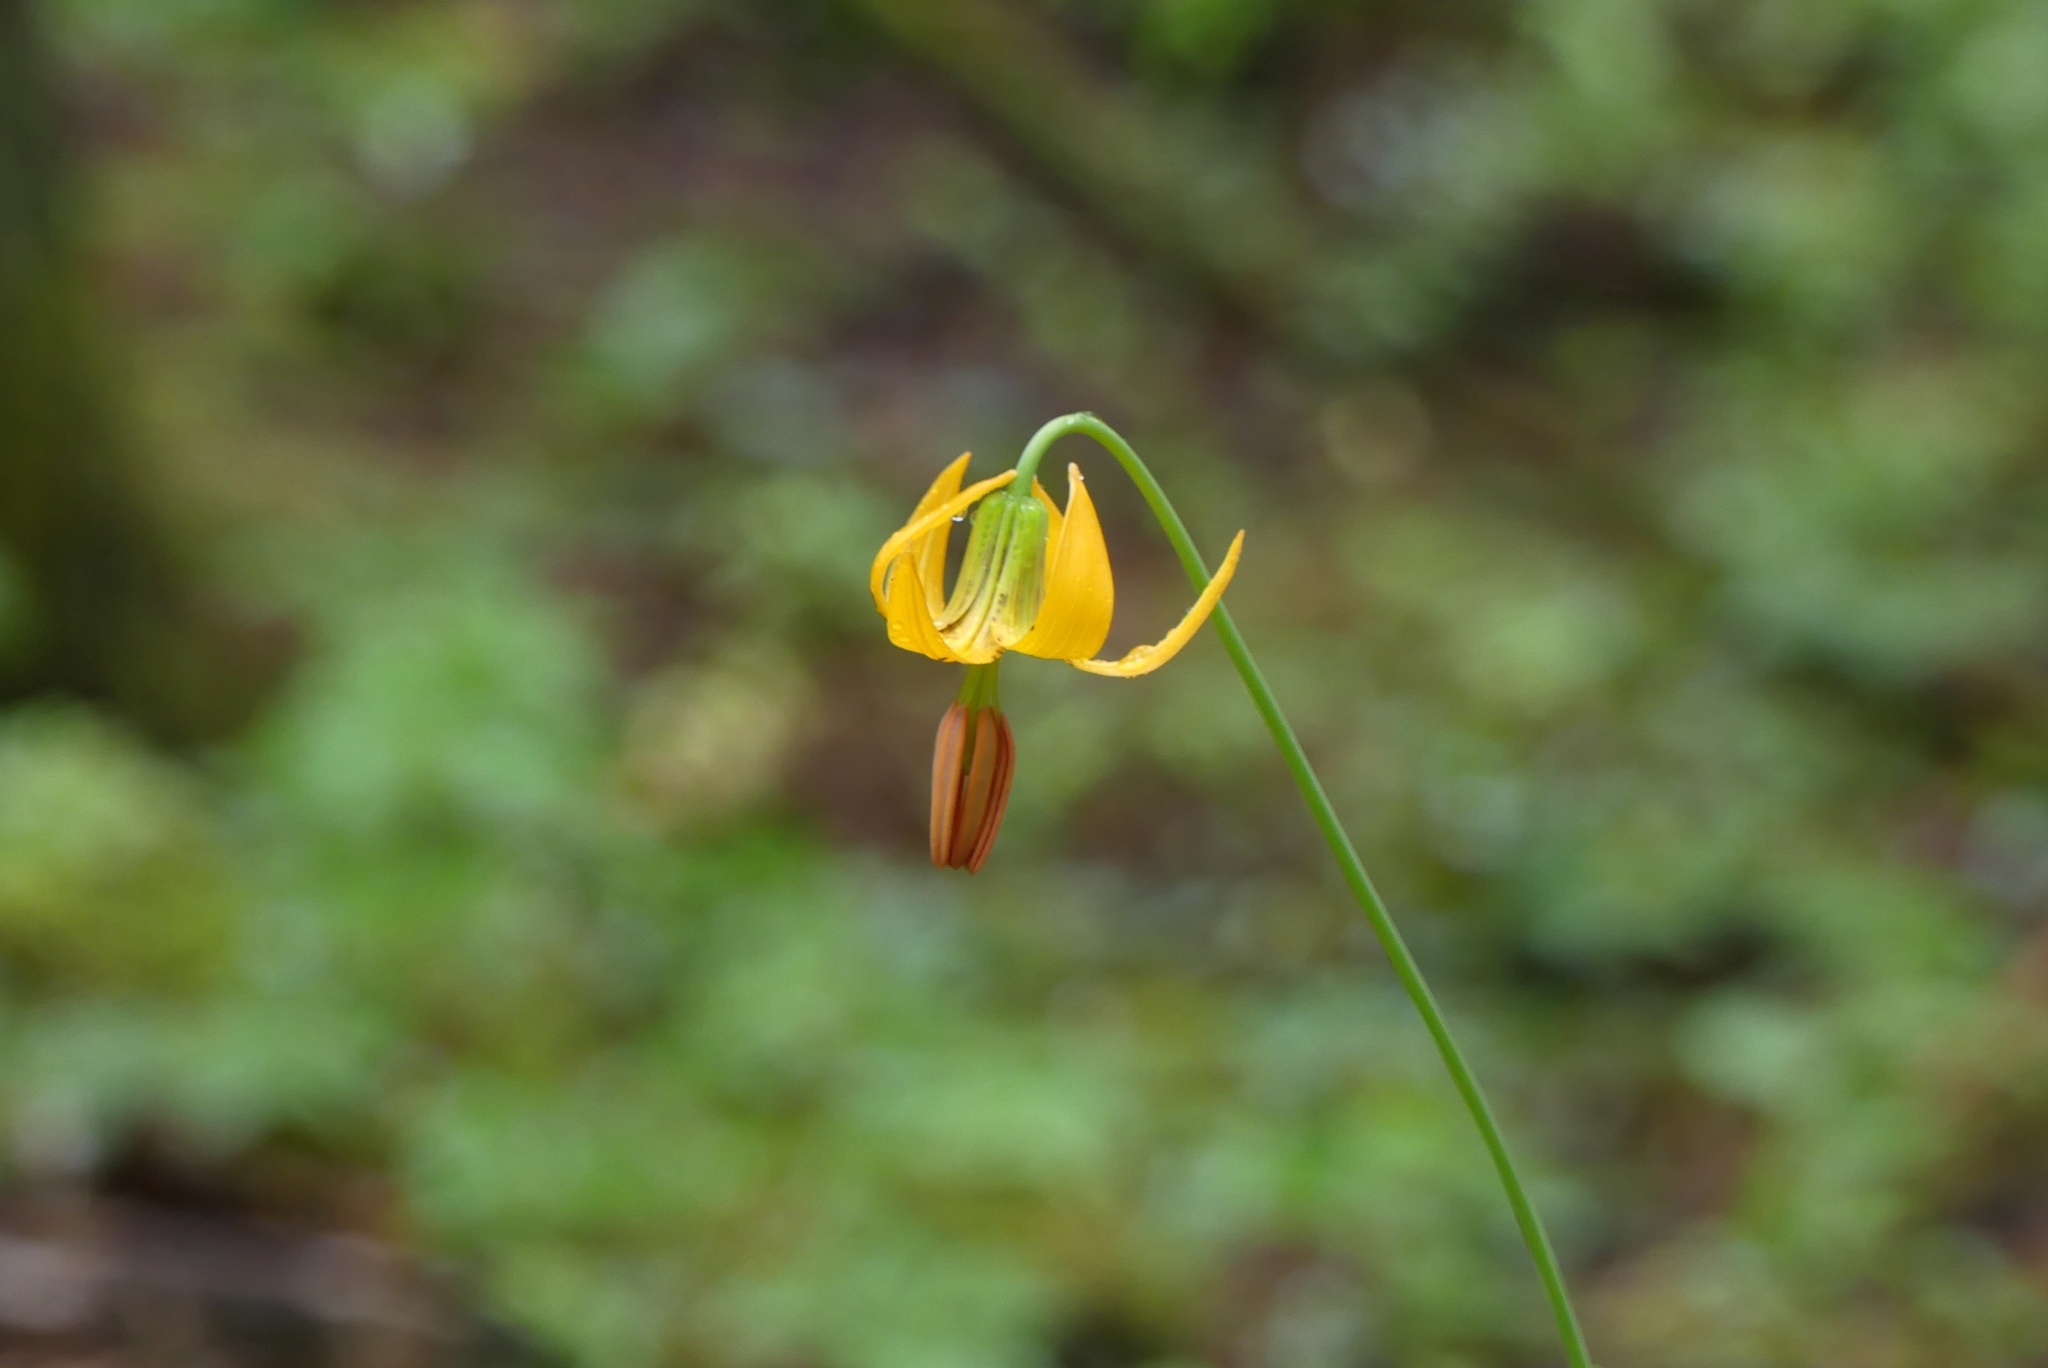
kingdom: Plantae
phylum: Tracheophyta
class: Liliopsida
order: Liliales
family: Liliaceae
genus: Lilium
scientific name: Lilium columbianum
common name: Columbia lily
